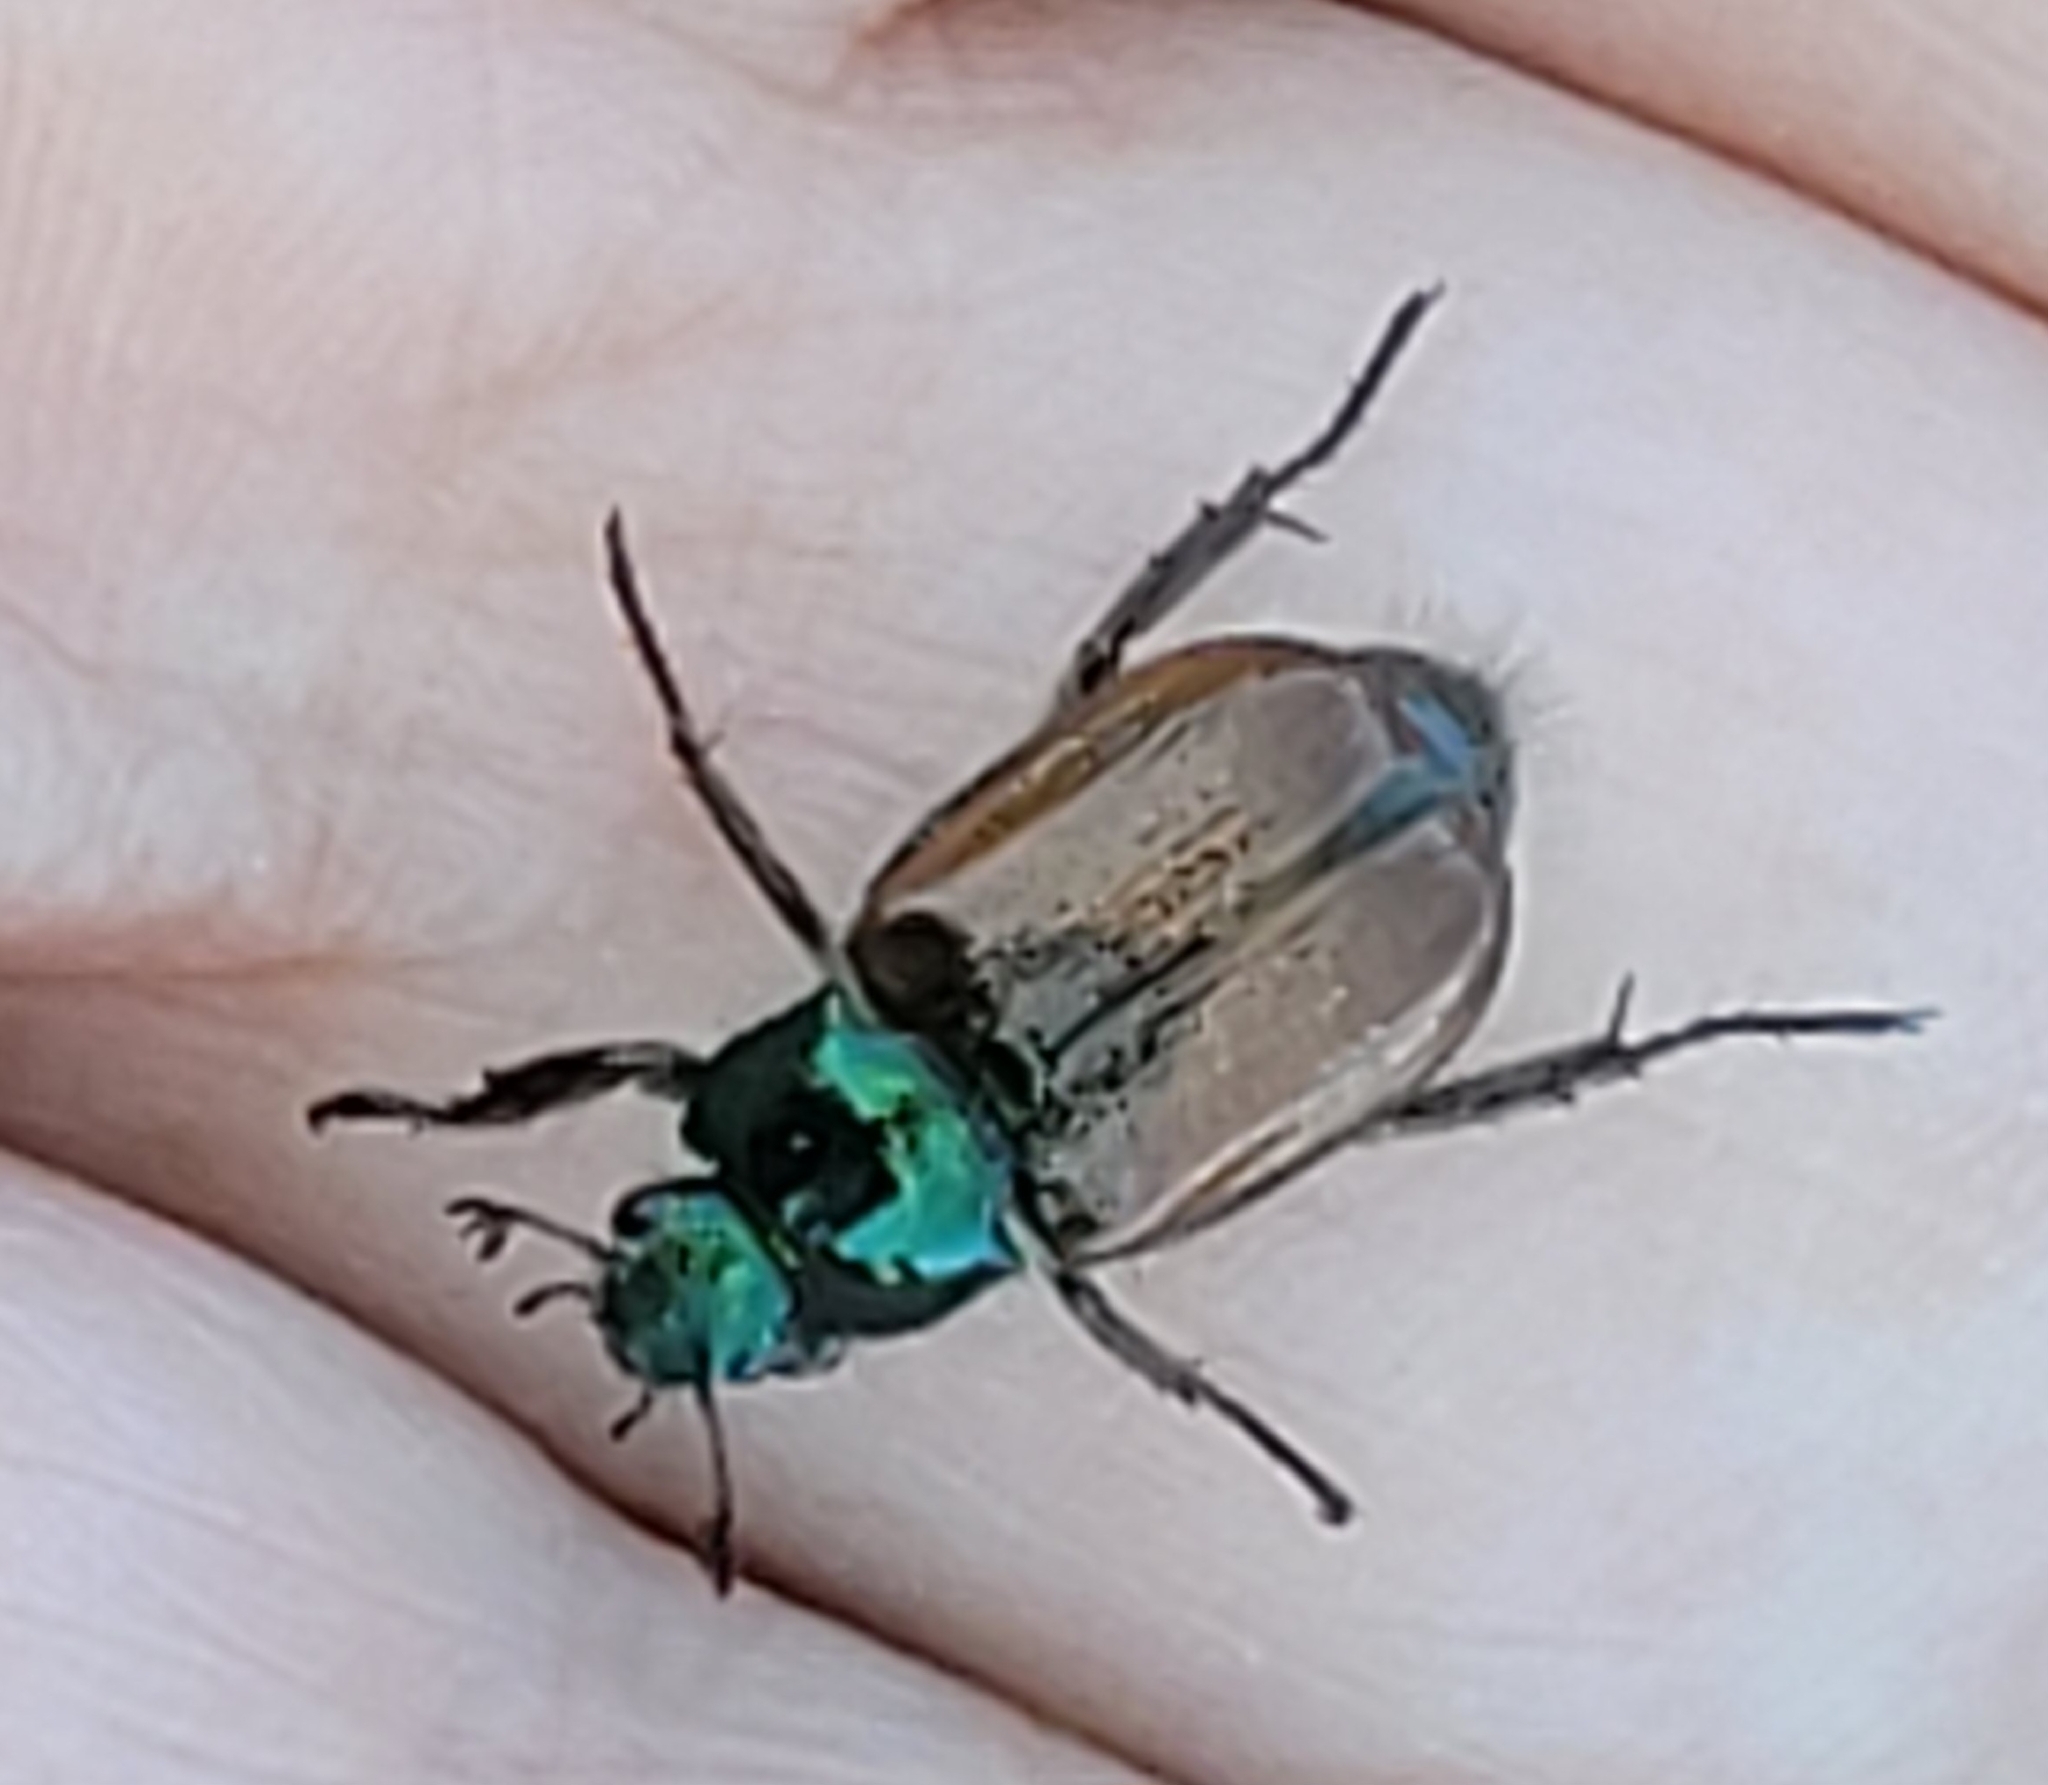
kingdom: Animalia
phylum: Arthropoda
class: Insecta
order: Coleoptera
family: Scarabaeidae
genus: Phyllopertha
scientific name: Phyllopertha horticola
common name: Garden chafer
